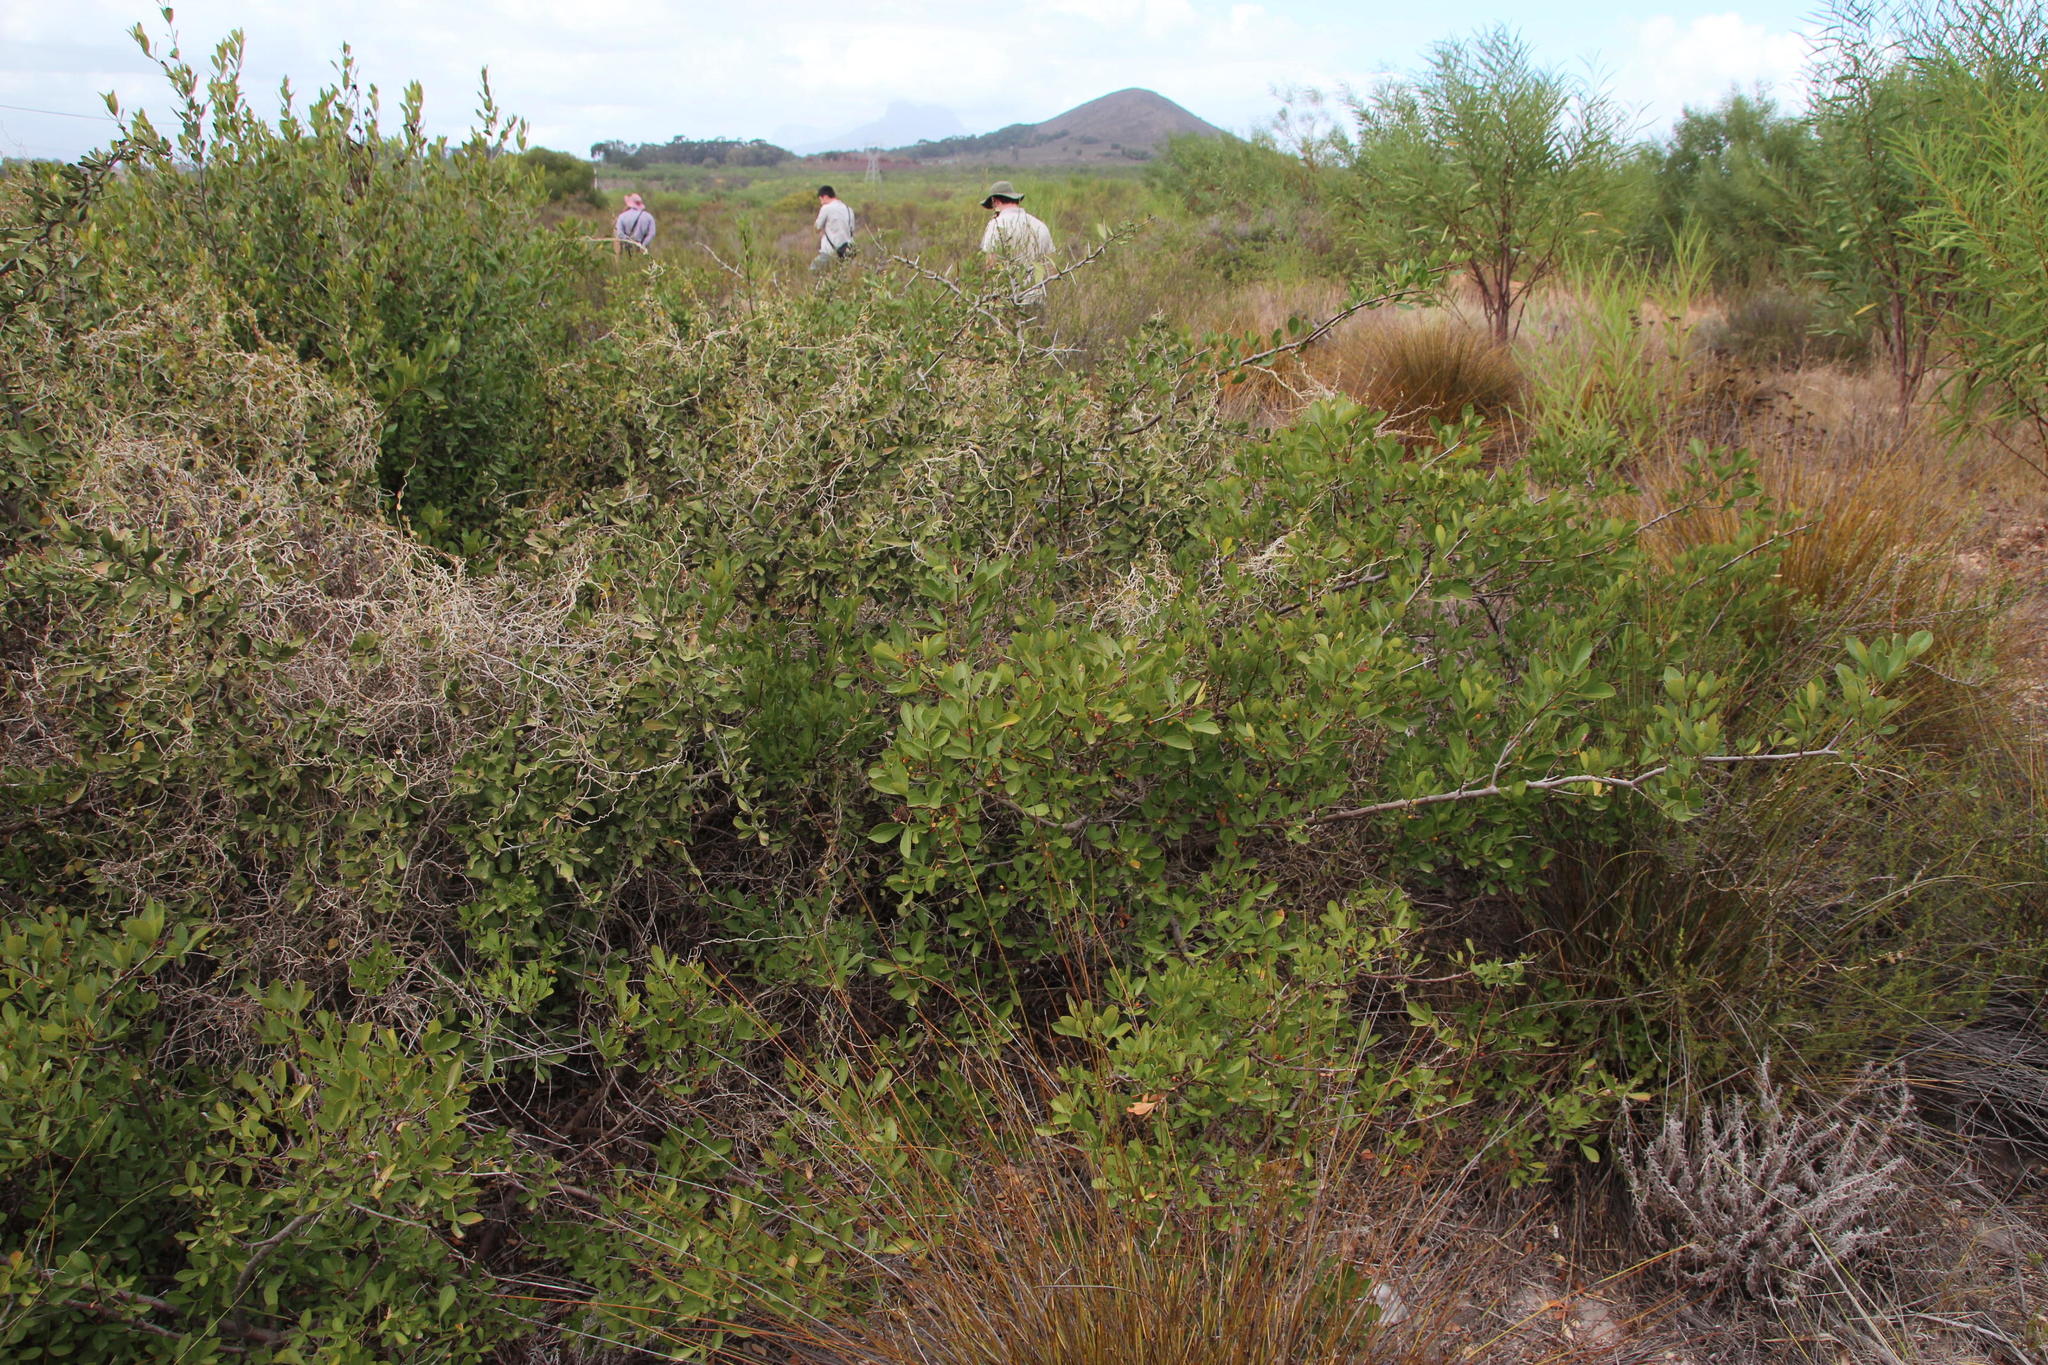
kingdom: Plantae
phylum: Tracheophyta
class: Magnoliopsida
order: Sapindales
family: Anacardiaceae
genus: Searsia
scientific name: Searsia laevigata
